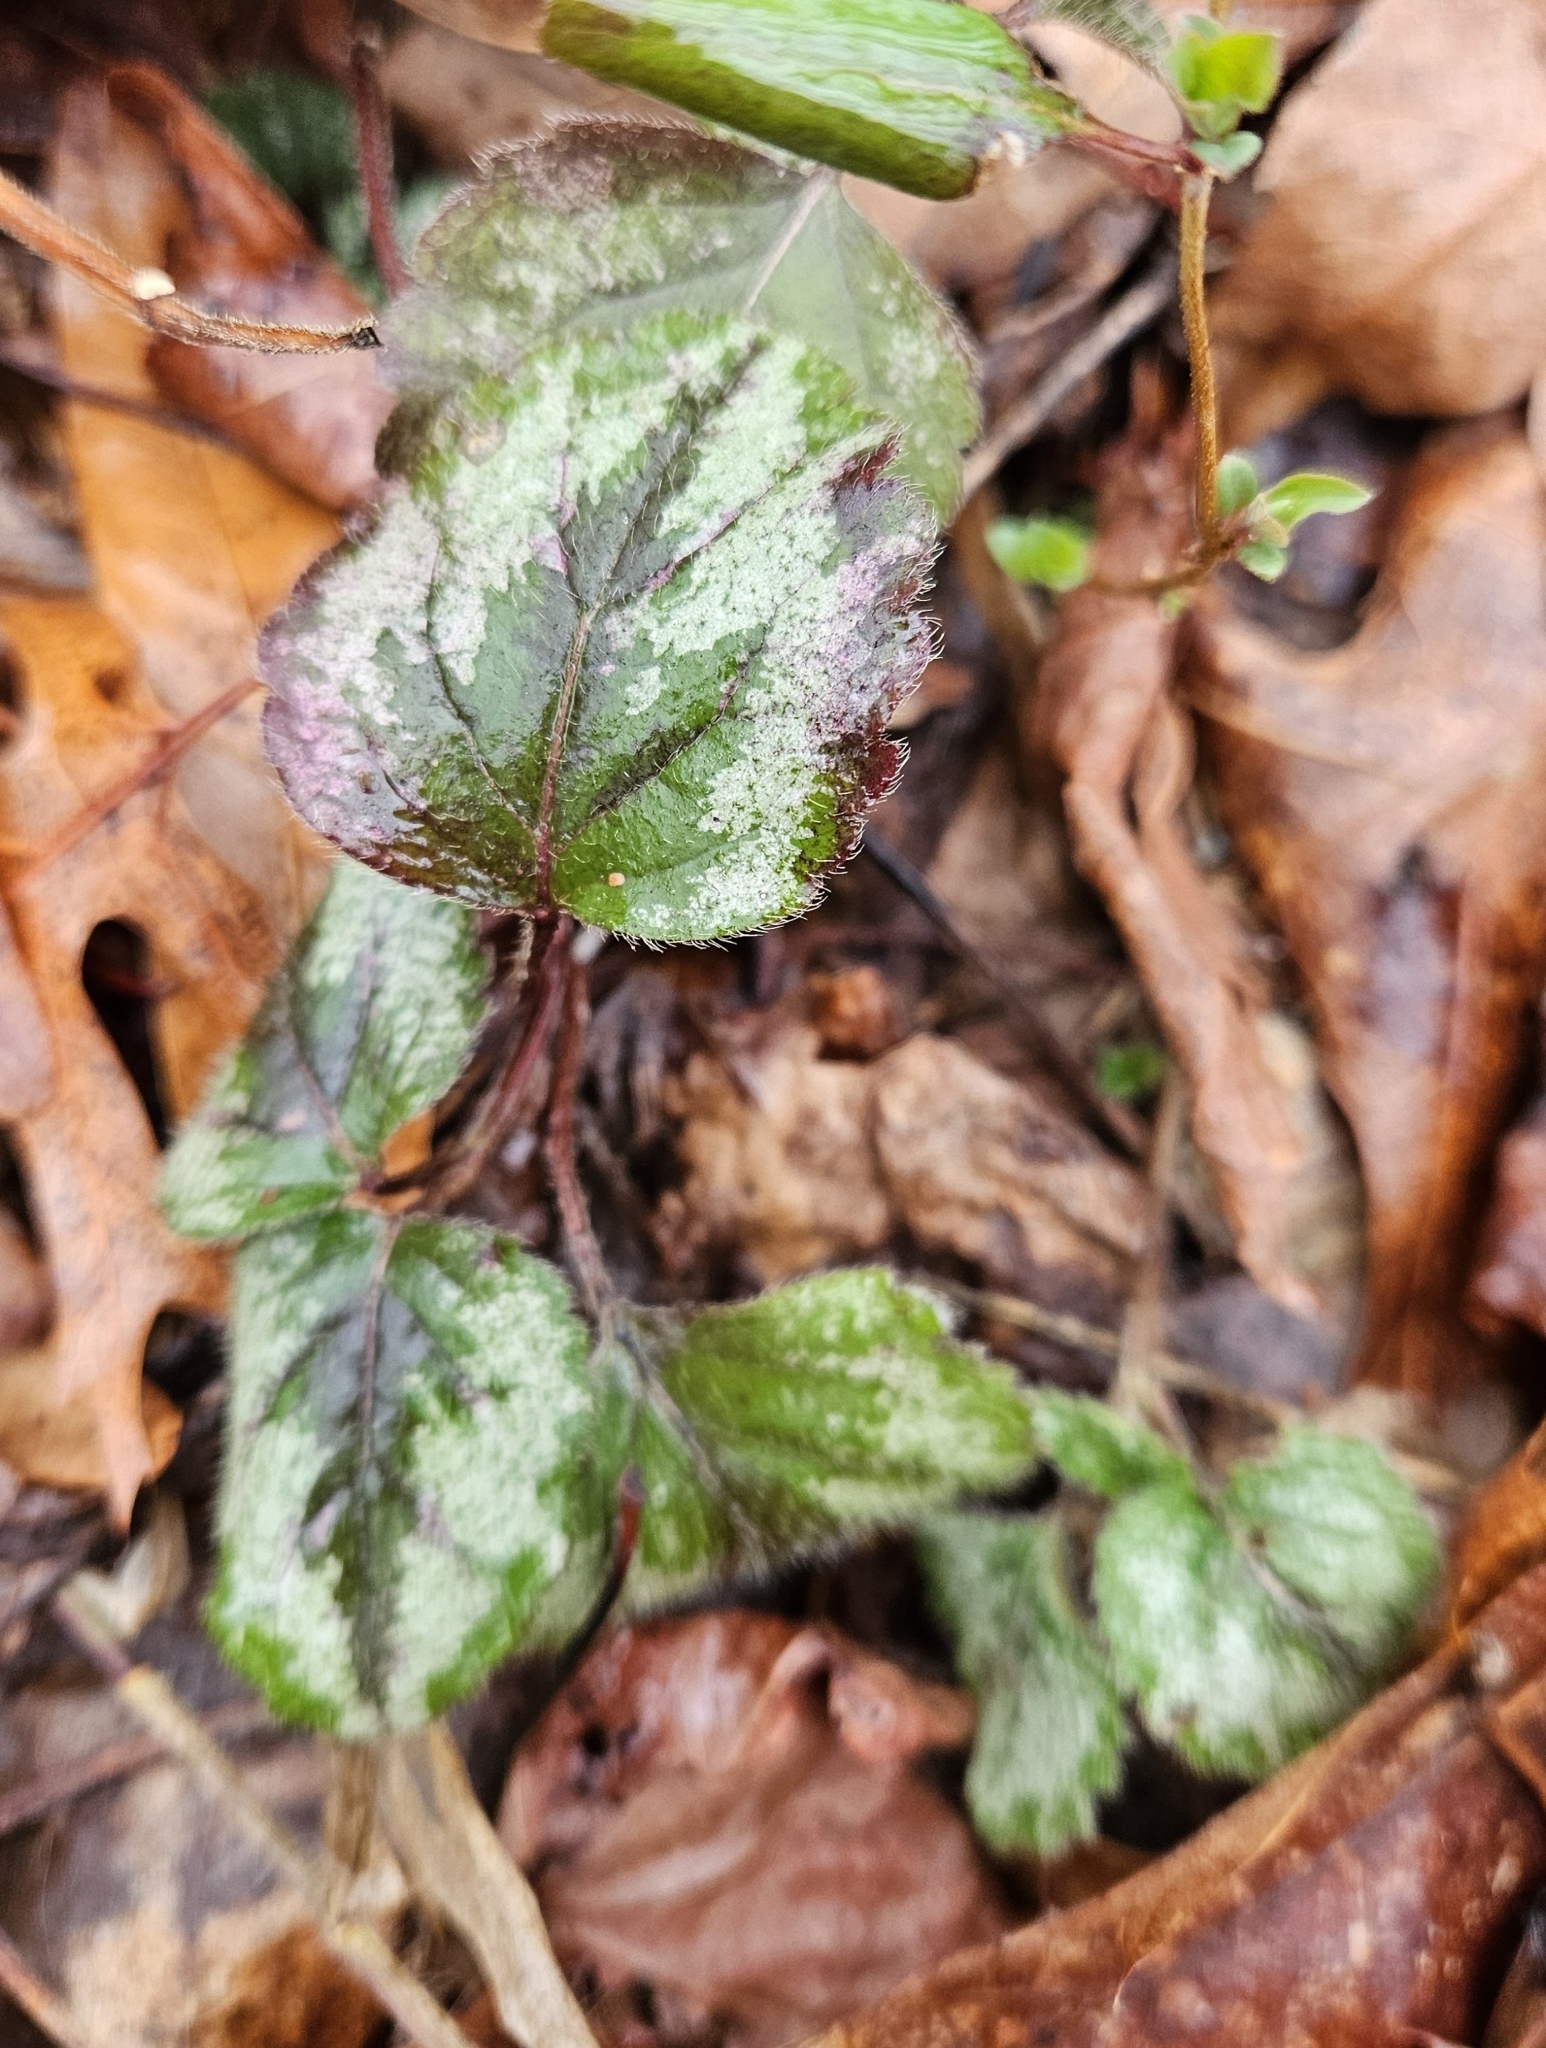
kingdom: Plantae
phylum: Tracheophyta
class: Magnoliopsida
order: Lamiales
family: Lamiaceae
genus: Lamium
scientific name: Lamium galeobdolon
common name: Yellow archangel
